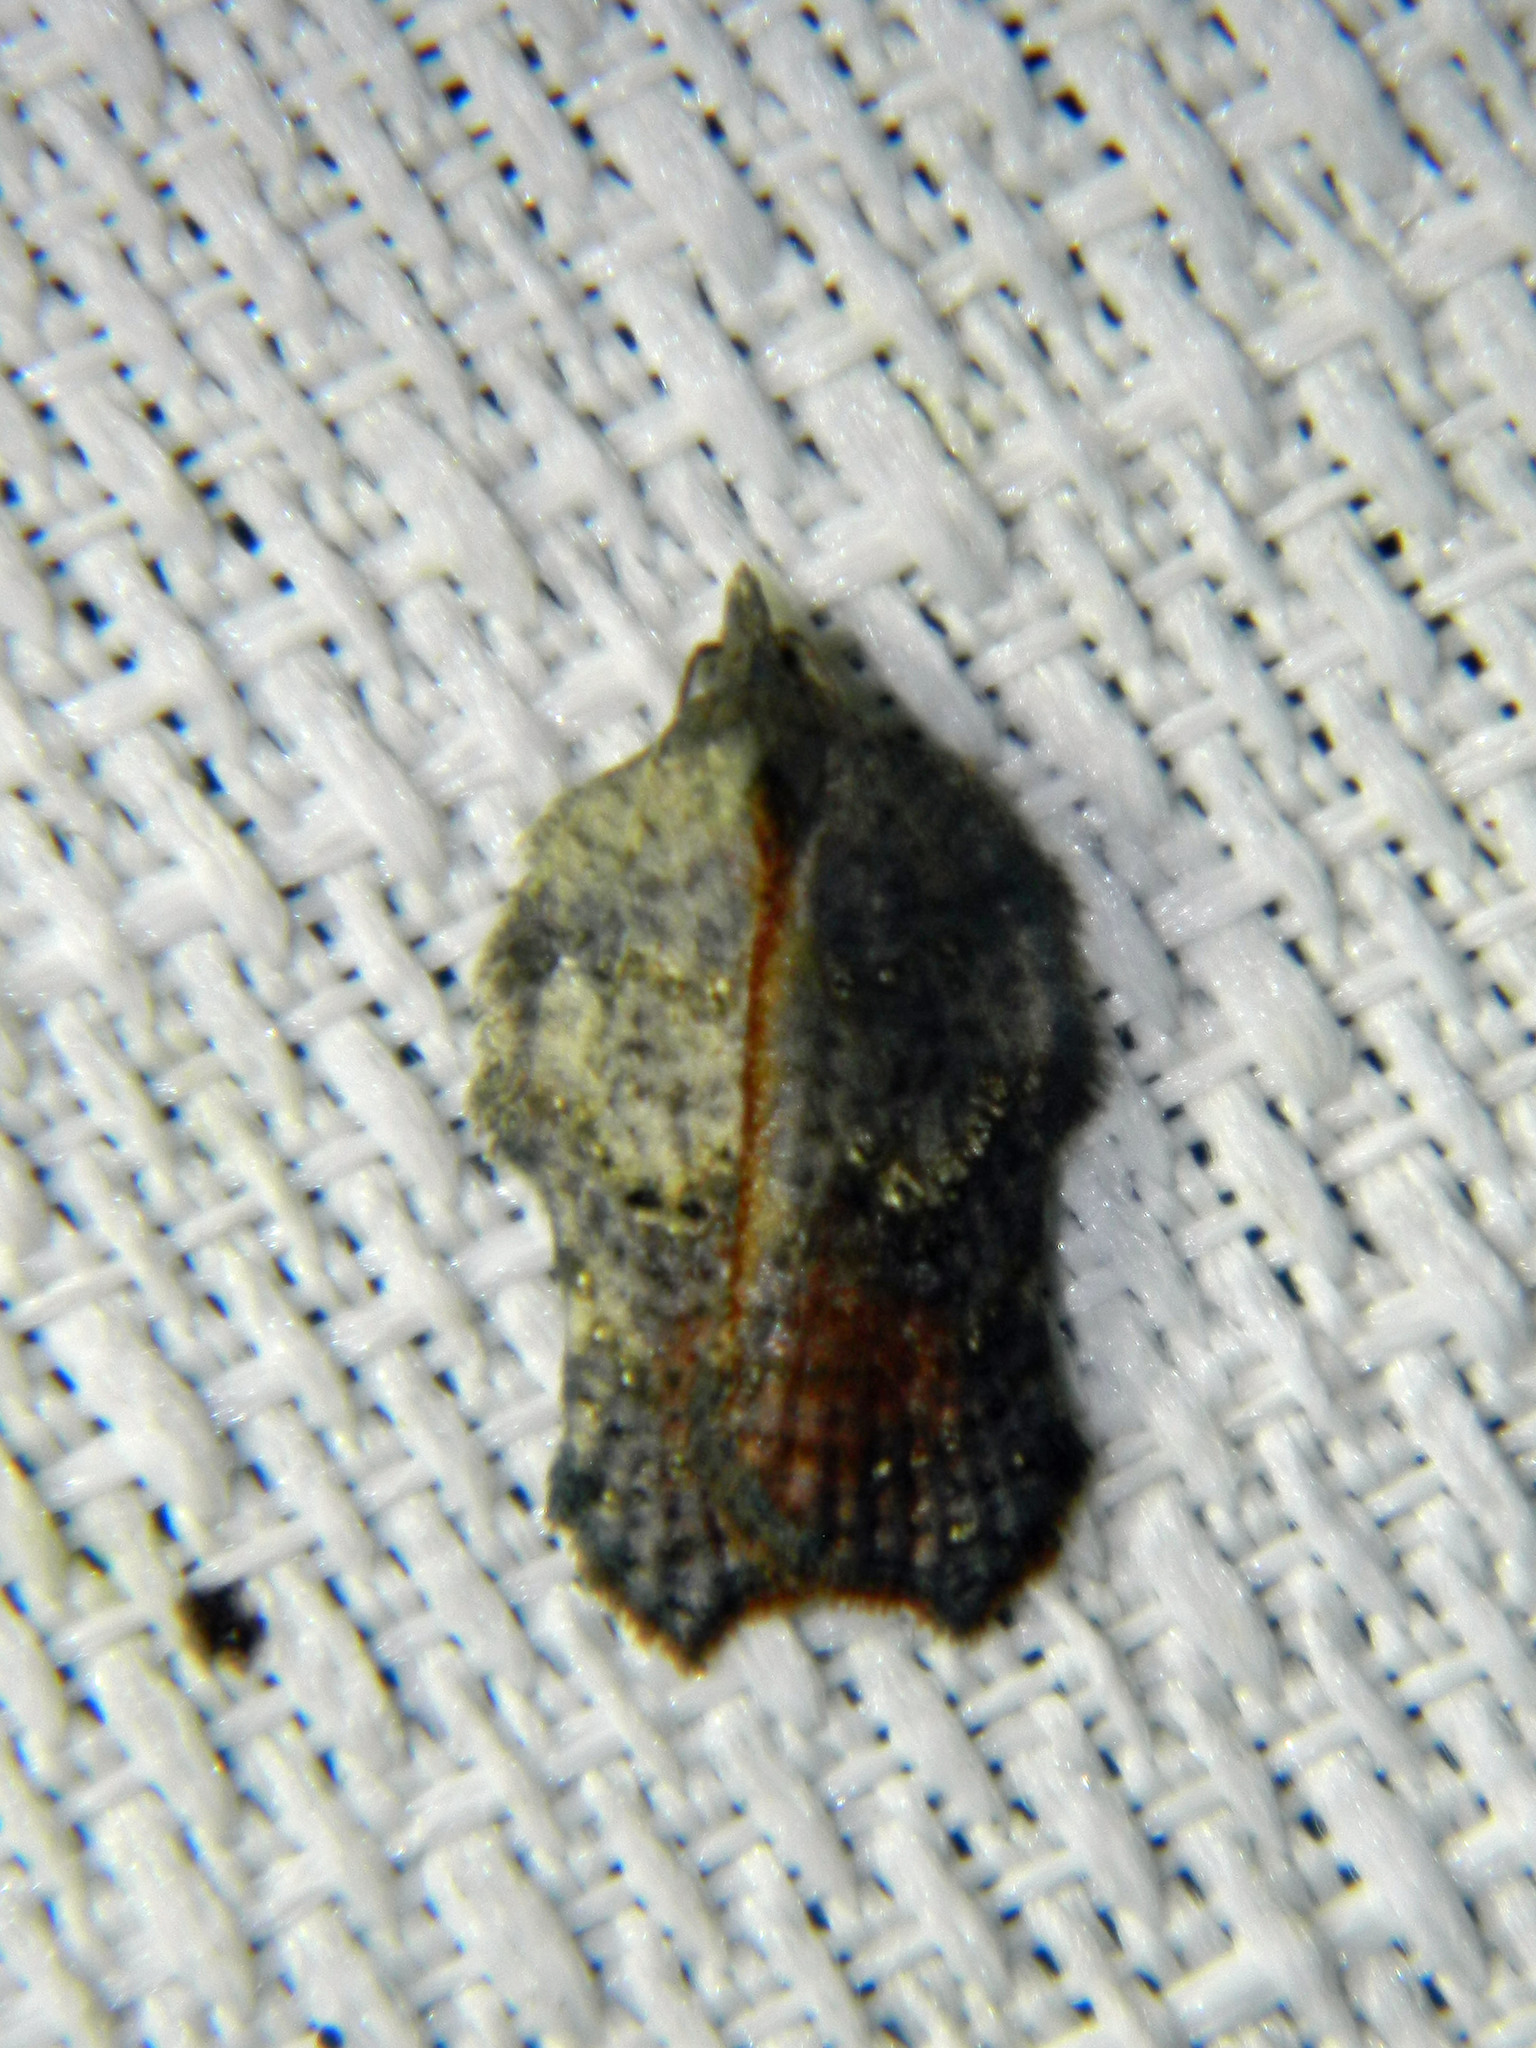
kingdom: Animalia
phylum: Arthropoda
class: Insecta
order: Lepidoptera
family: Tortricidae
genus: Acleris
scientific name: Acleris effractana
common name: Hook-winged tortrix moth
